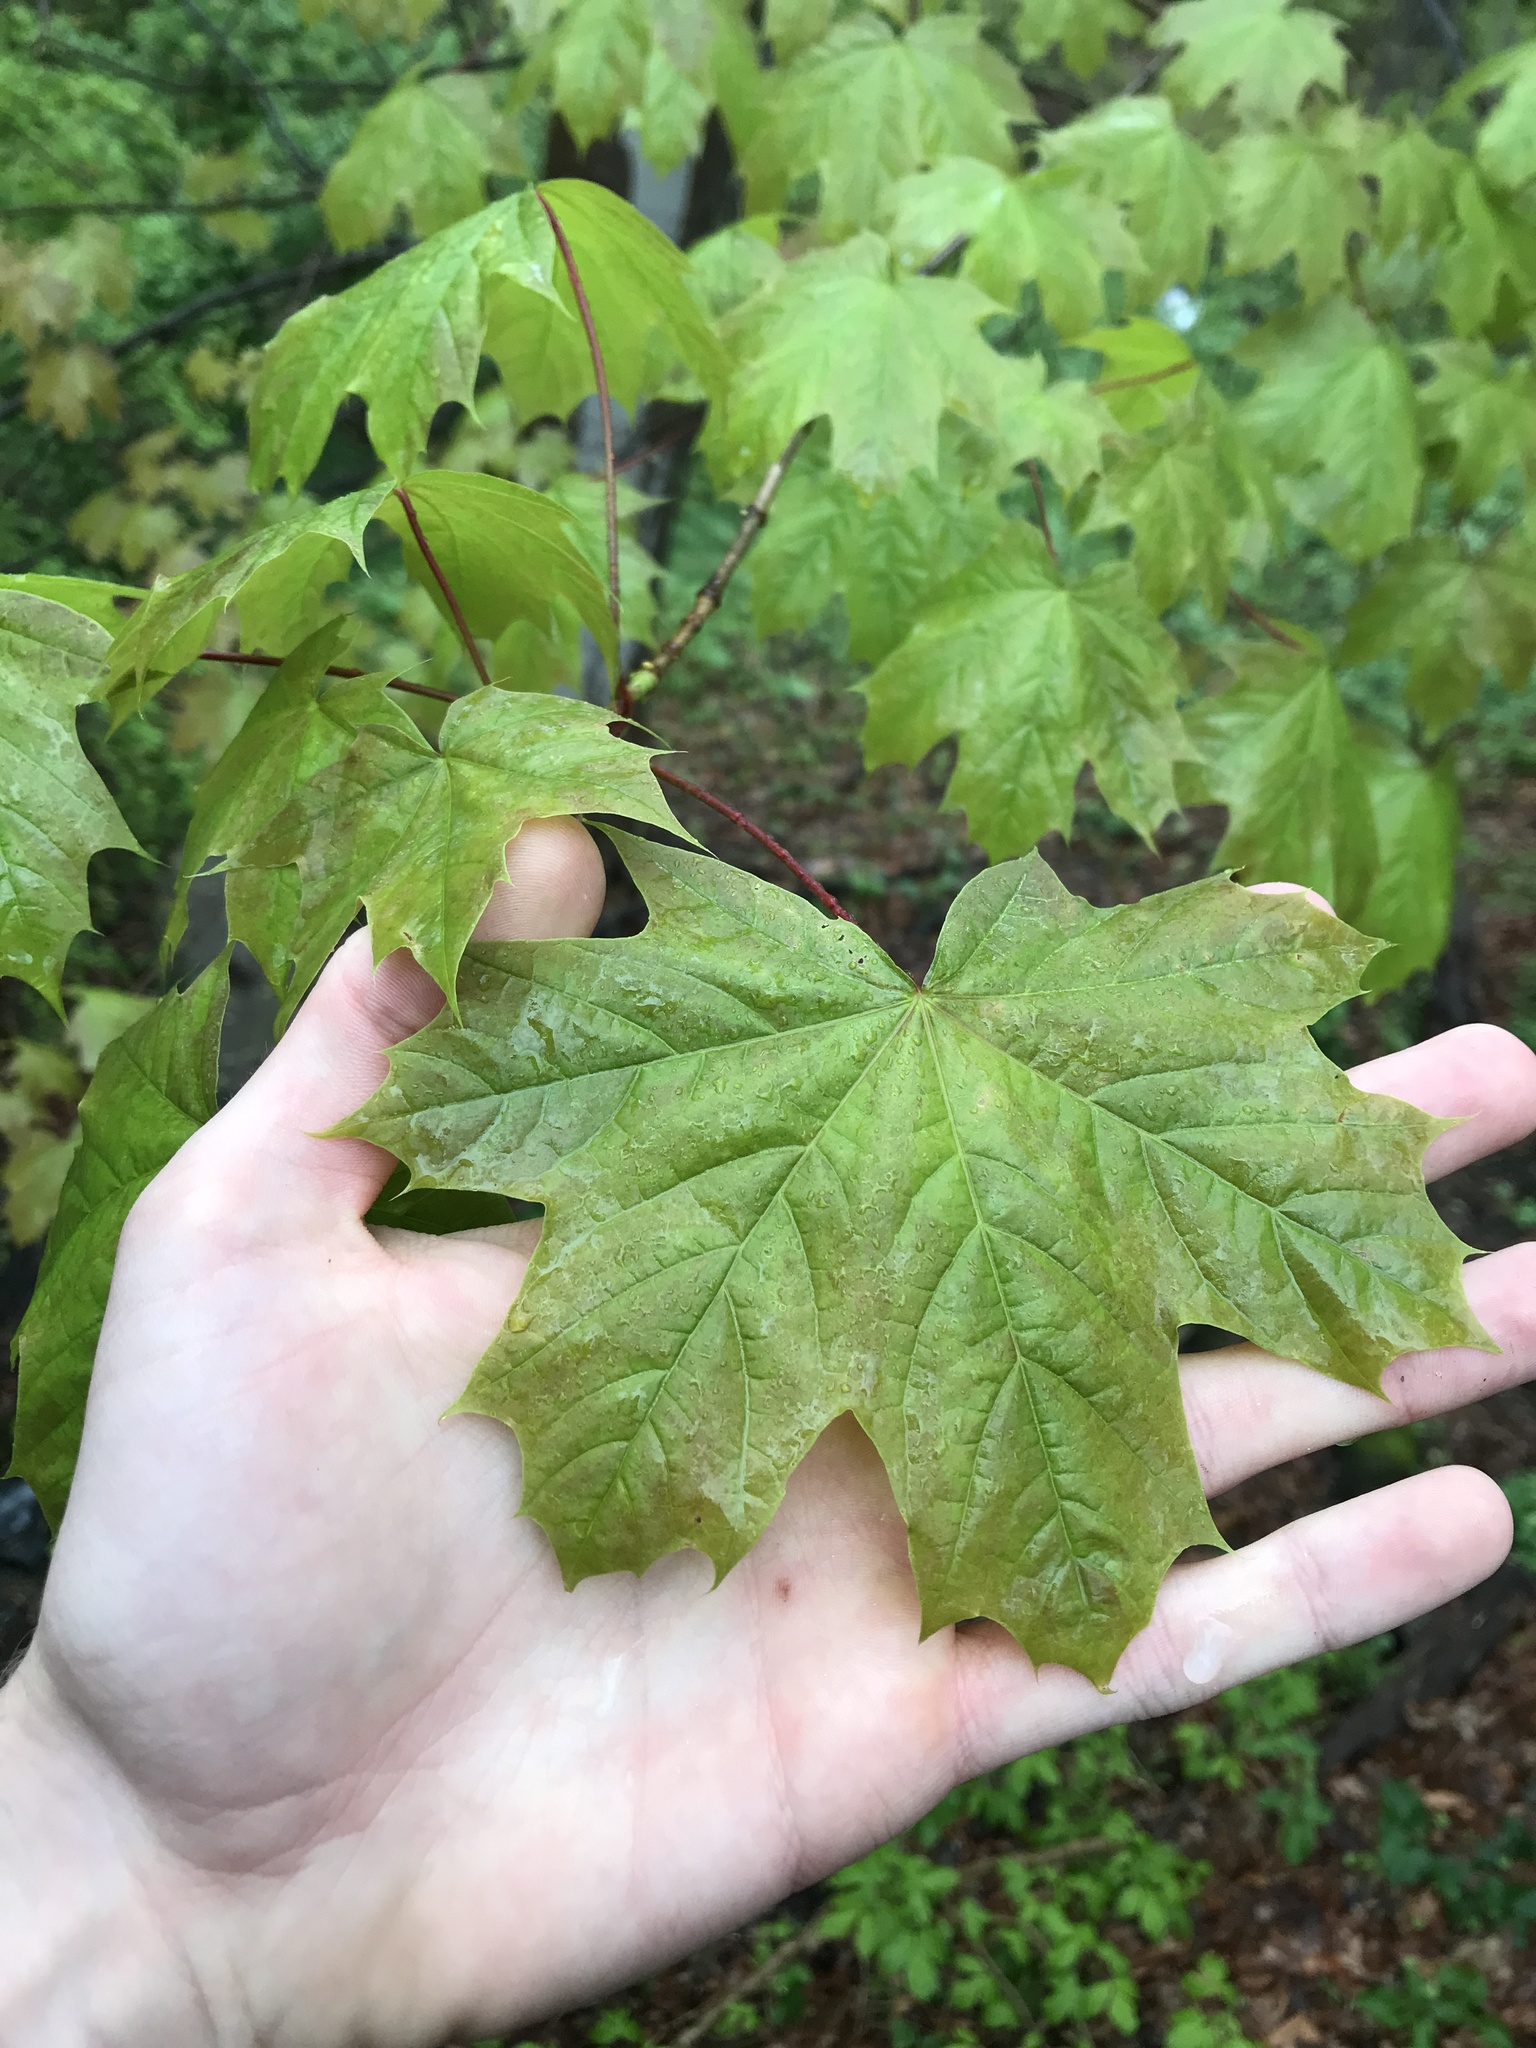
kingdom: Plantae
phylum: Tracheophyta
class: Magnoliopsida
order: Sapindales
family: Sapindaceae
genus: Acer
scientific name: Acer platanoides
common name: Norway maple
